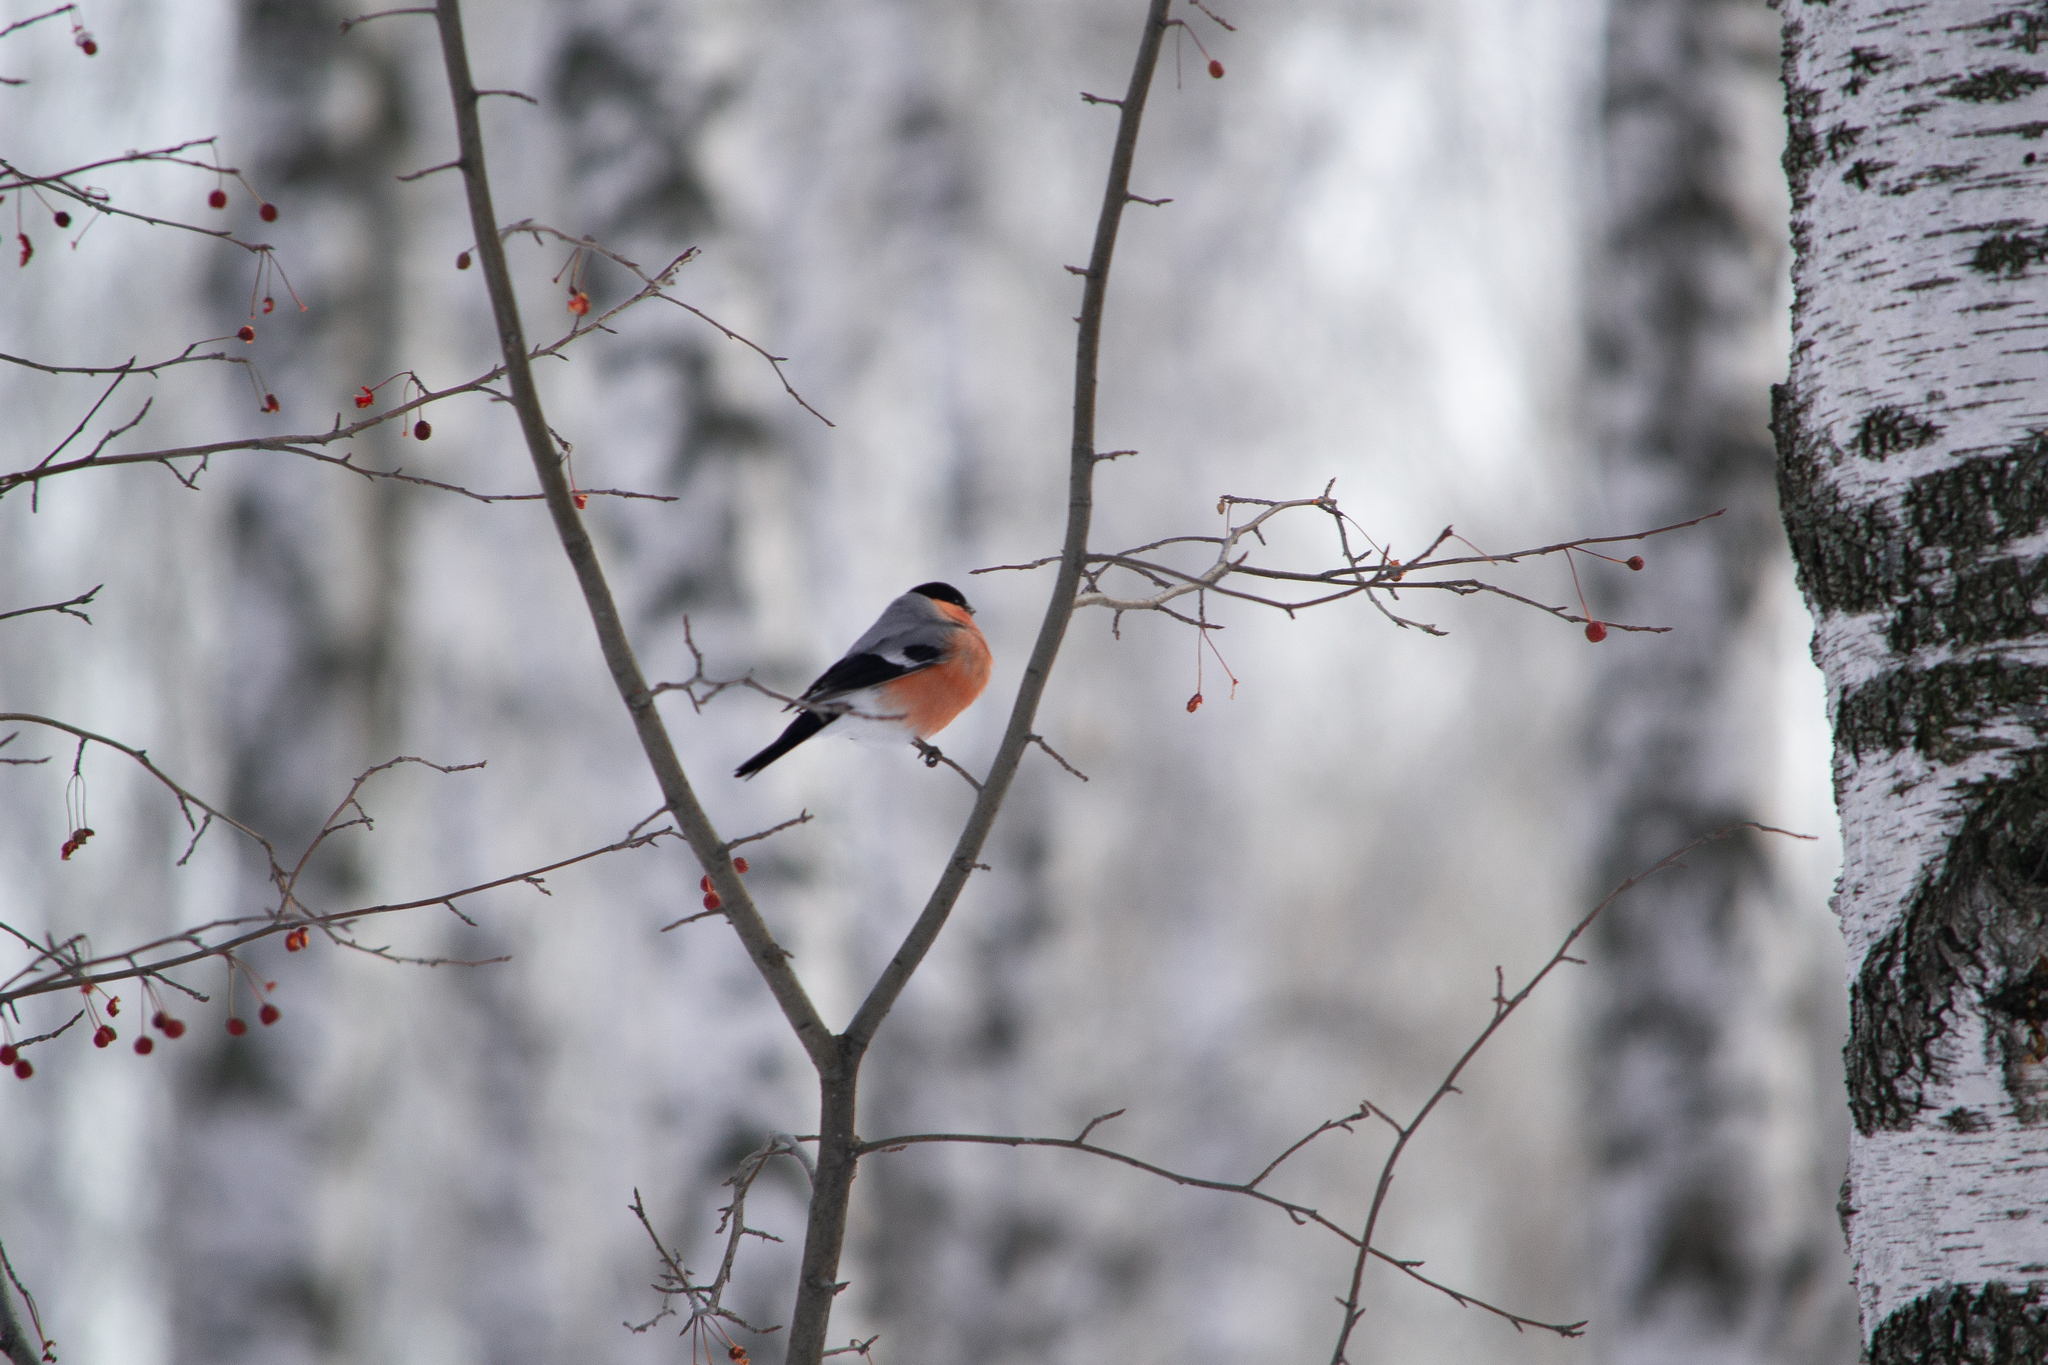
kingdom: Animalia
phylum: Chordata
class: Aves
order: Passeriformes
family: Fringillidae
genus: Pyrrhula
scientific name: Pyrrhula pyrrhula
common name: Eurasian bullfinch
